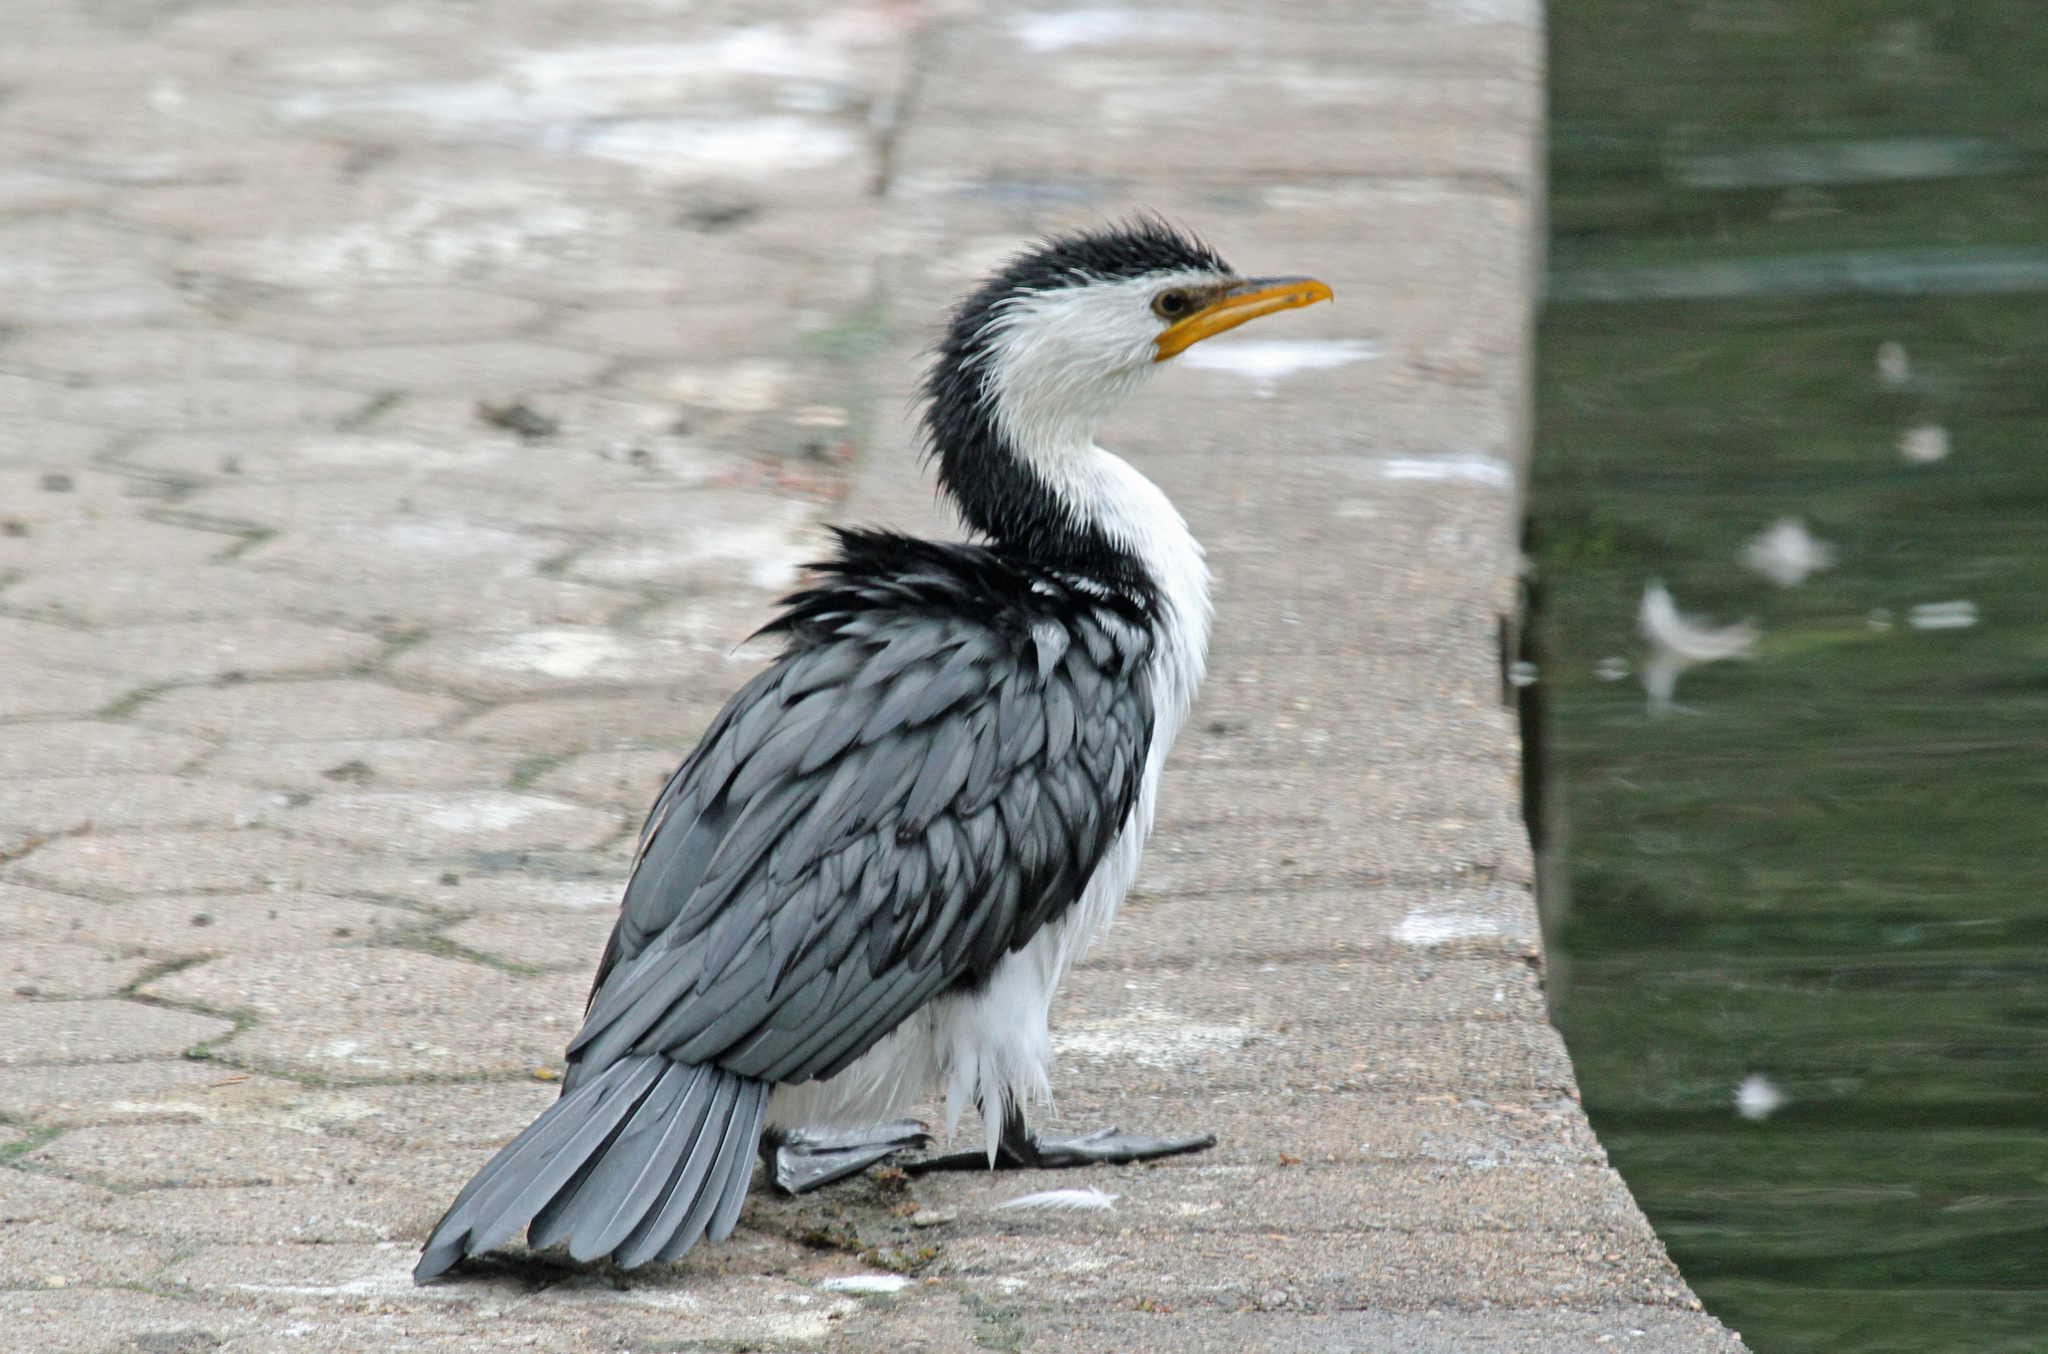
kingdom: Animalia
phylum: Chordata
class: Aves
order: Suliformes
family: Phalacrocoracidae
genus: Microcarbo
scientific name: Microcarbo melanoleucos
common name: Little pied cormorant
